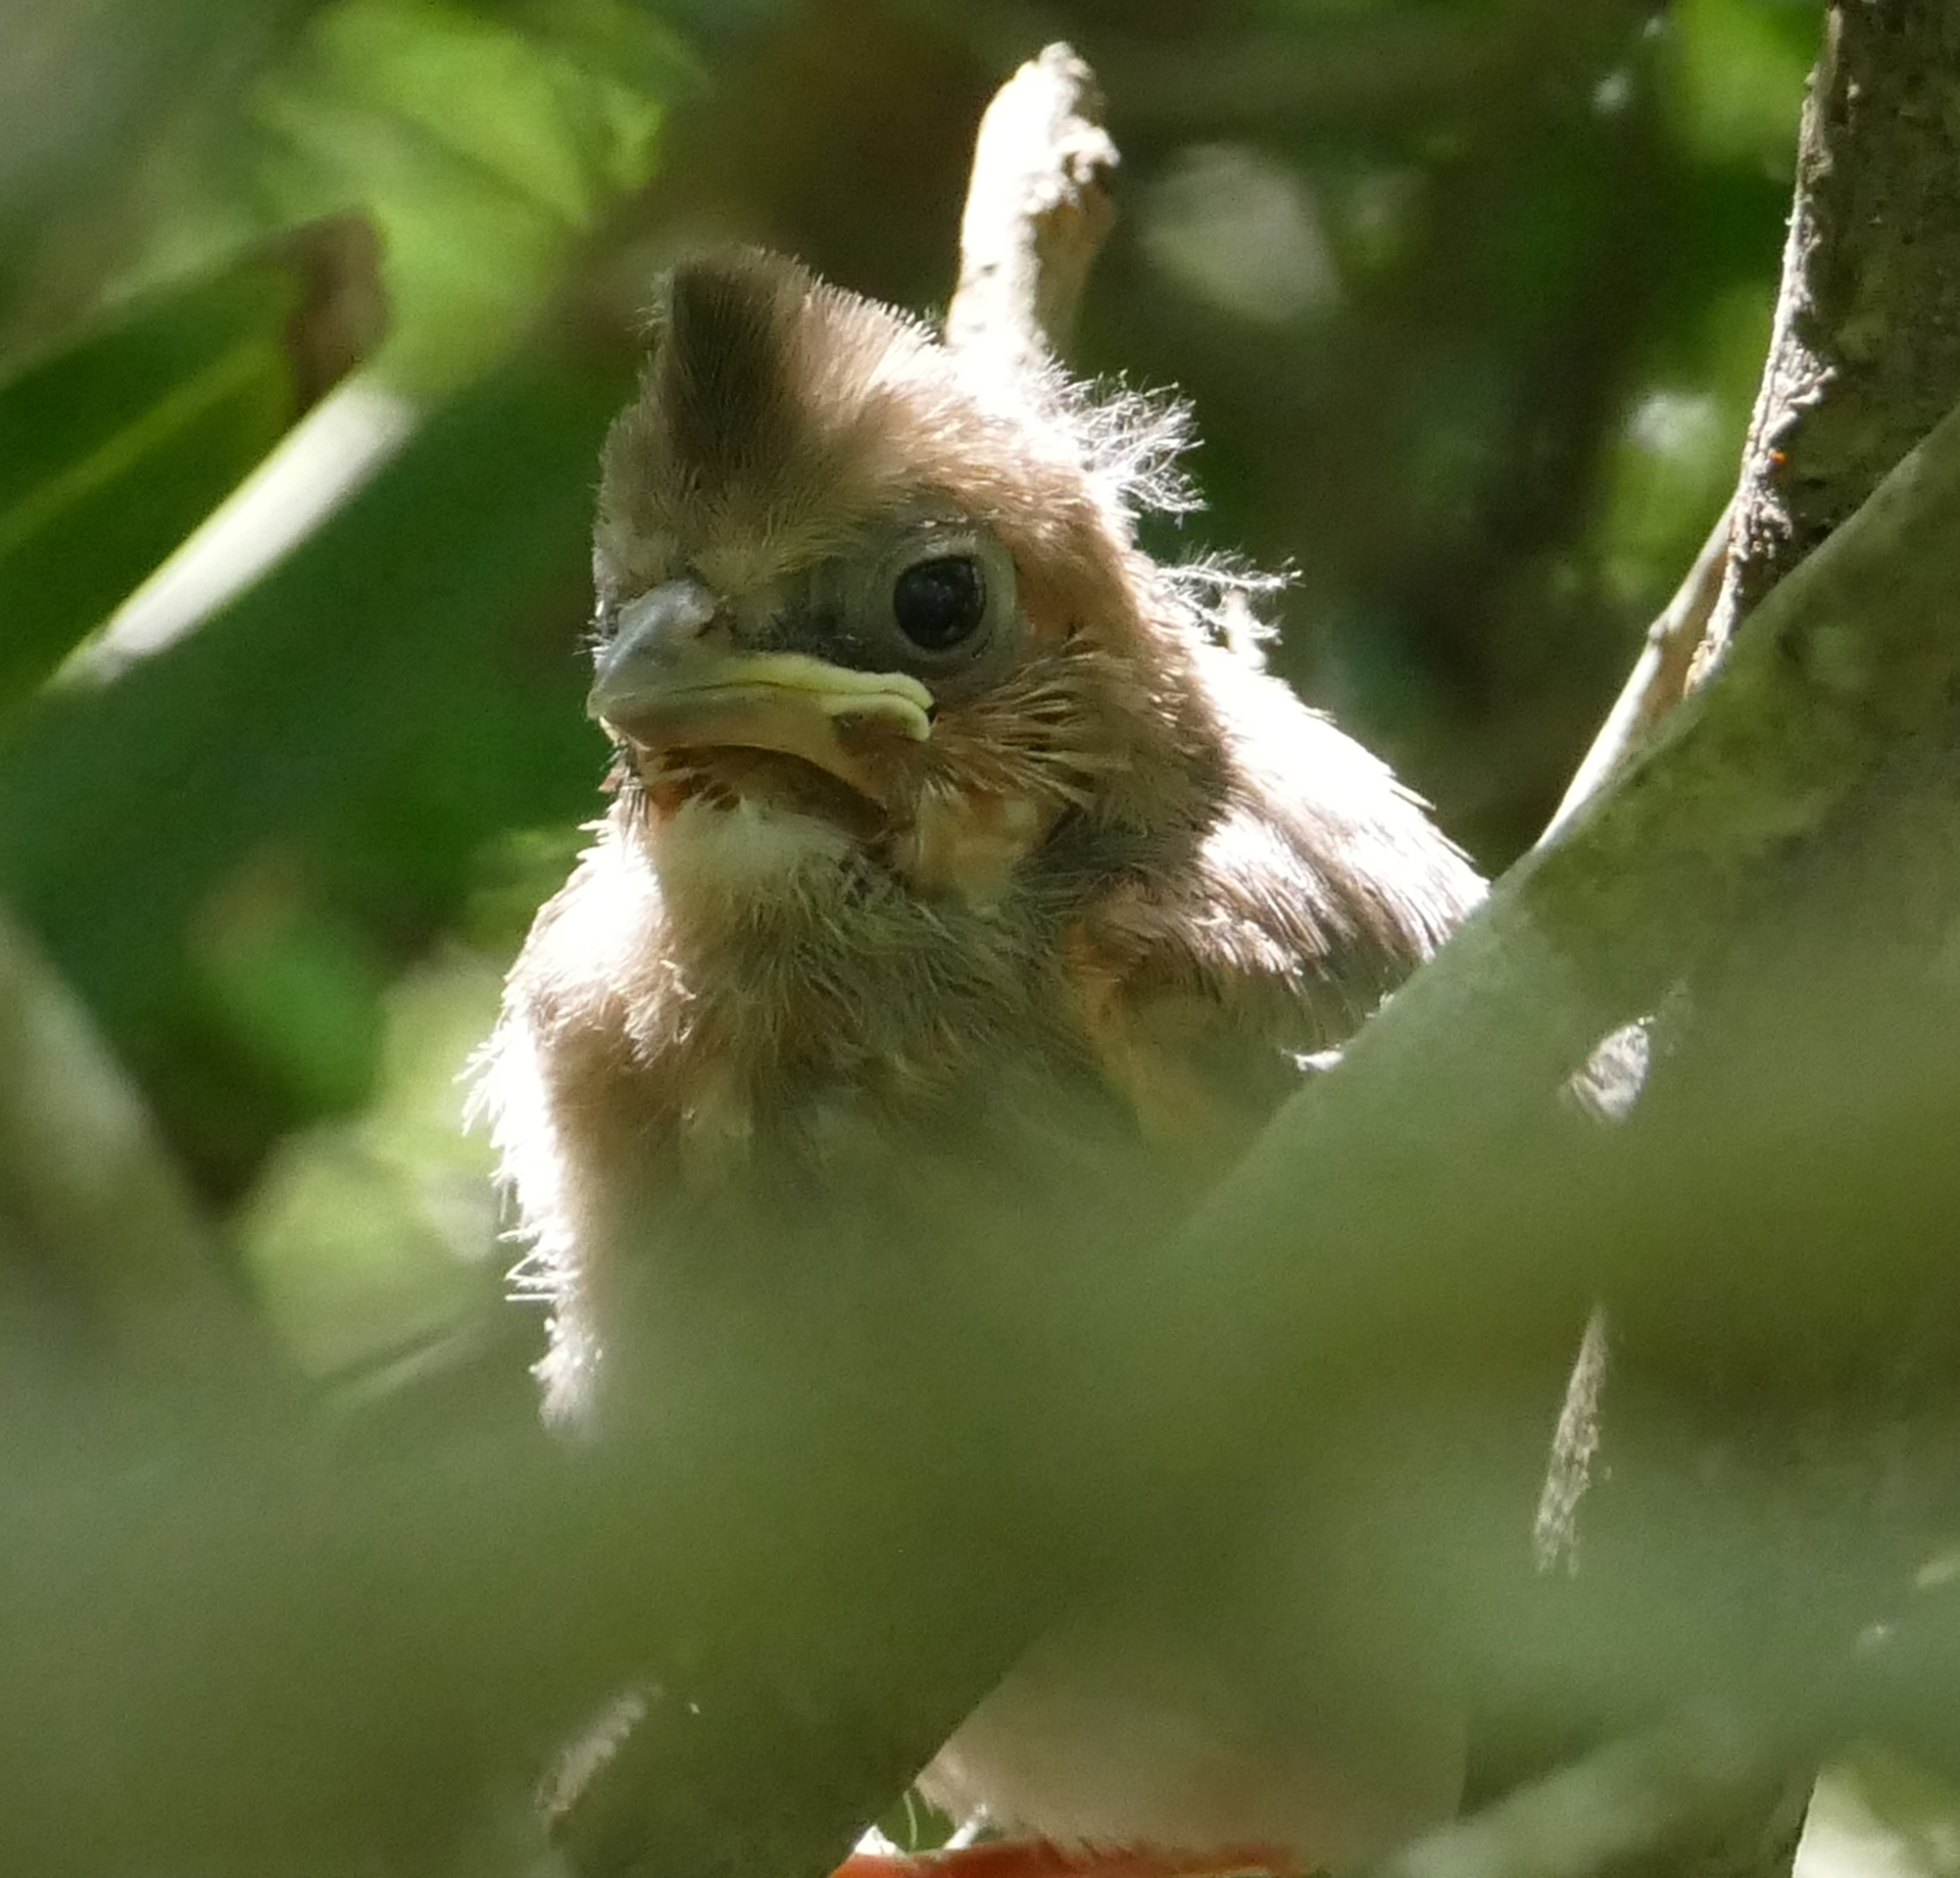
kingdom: Animalia
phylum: Chordata
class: Aves
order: Passeriformes
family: Cardinalidae
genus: Cardinalis
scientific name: Cardinalis cardinalis
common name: Northern cardinal
